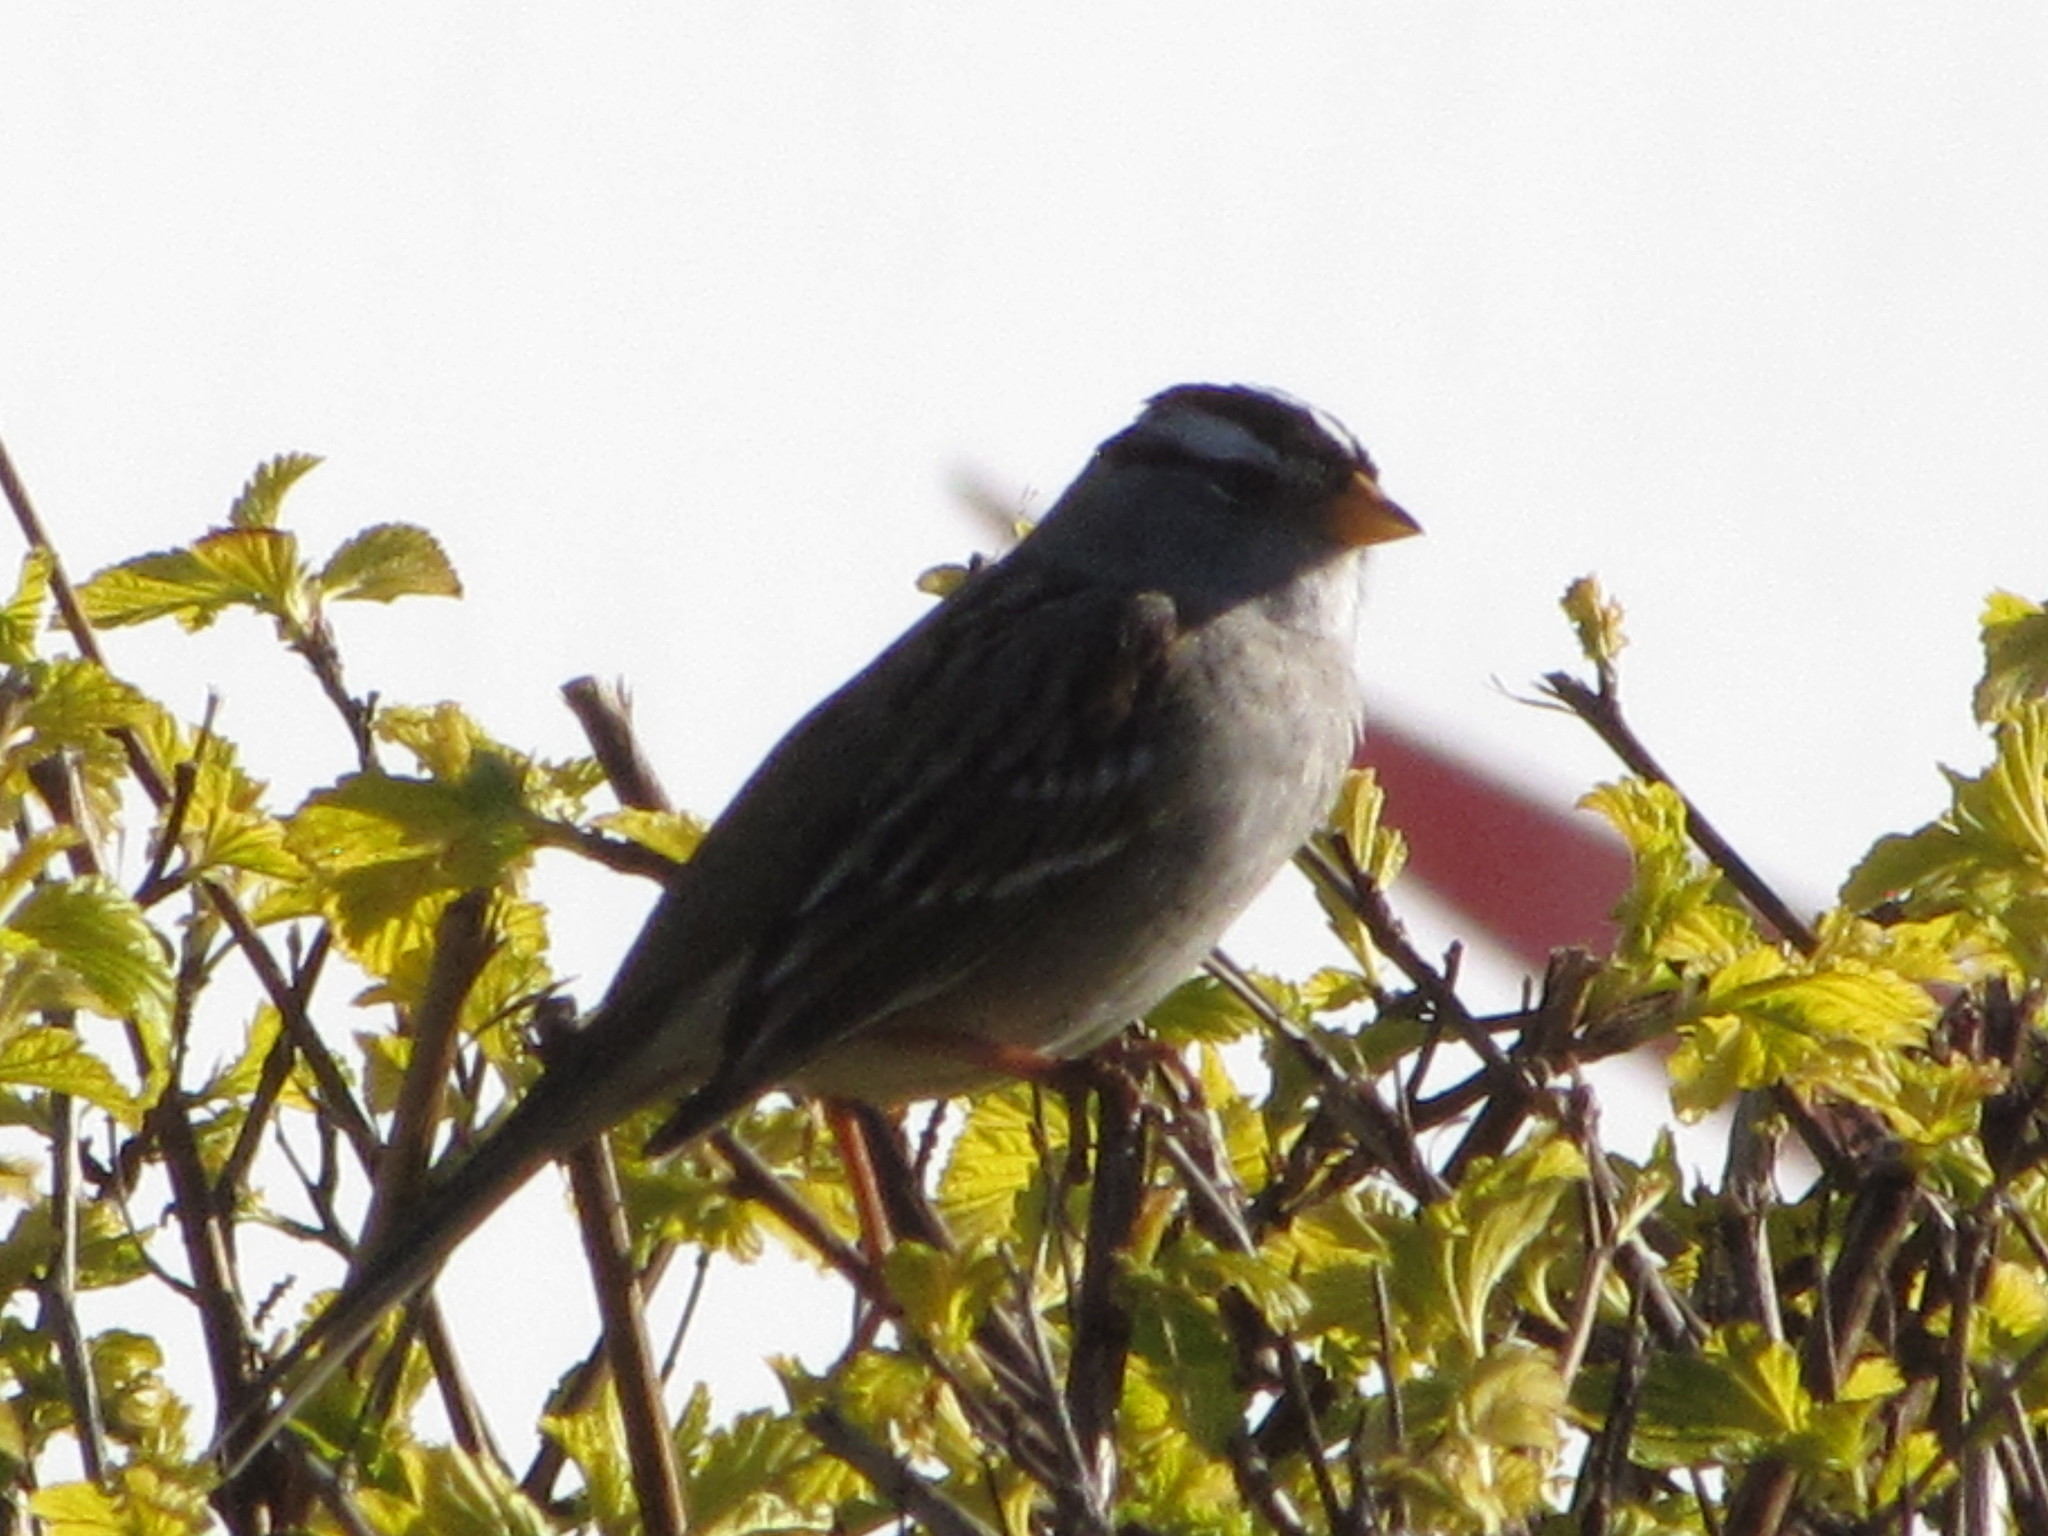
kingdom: Animalia
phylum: Chordata
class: Aves
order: Passeriformes
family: Passerellidae
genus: Zonotrichia
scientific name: Zonotrichia leucophrys
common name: White-crowned sparrow
